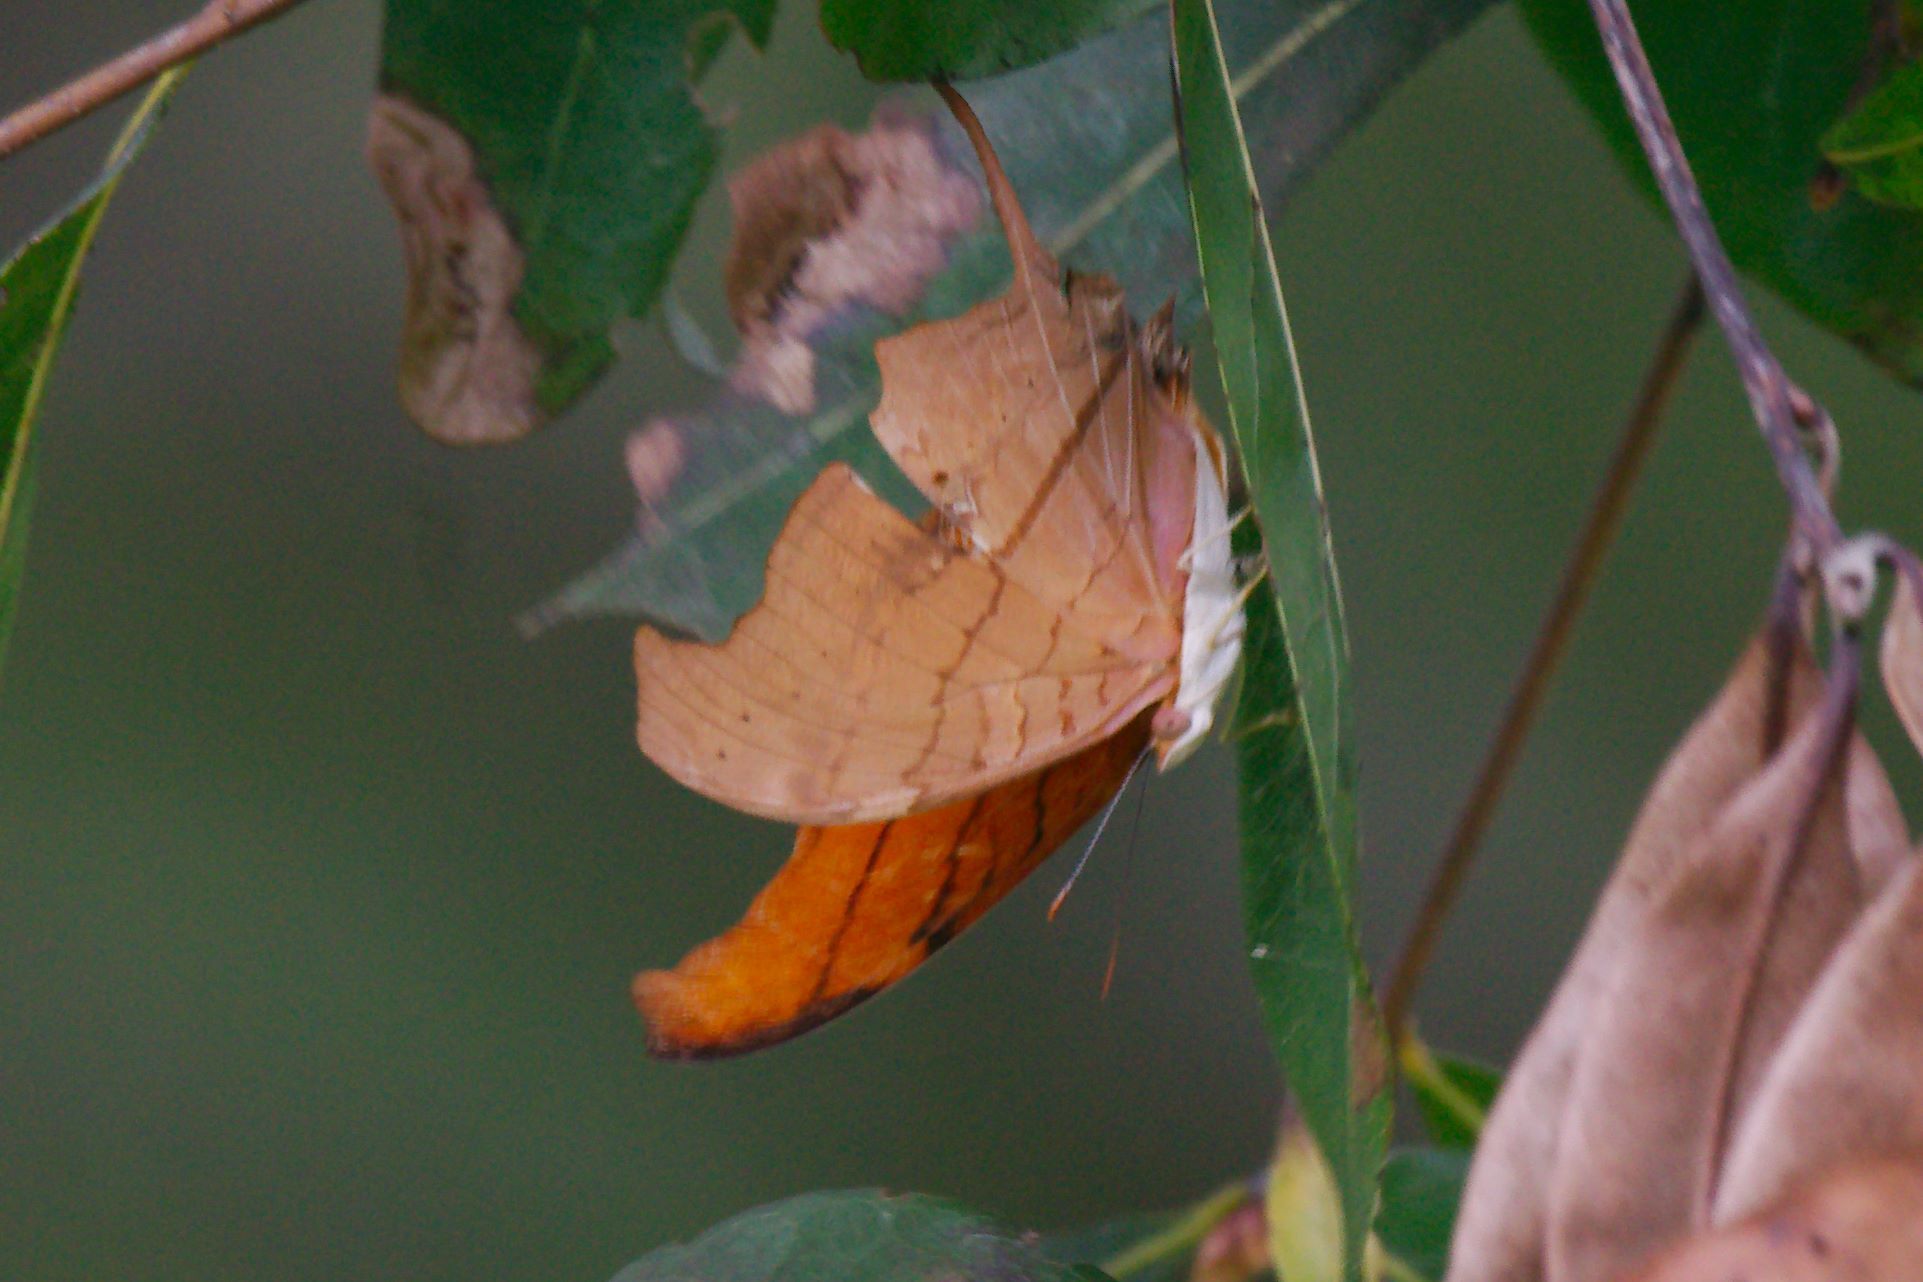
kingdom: Animalia
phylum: Arthropoda
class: Insecta
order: Lepidoptera
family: Nymphalidae
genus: Marpesia
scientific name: Marpesia petreus
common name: Red dagger wing
